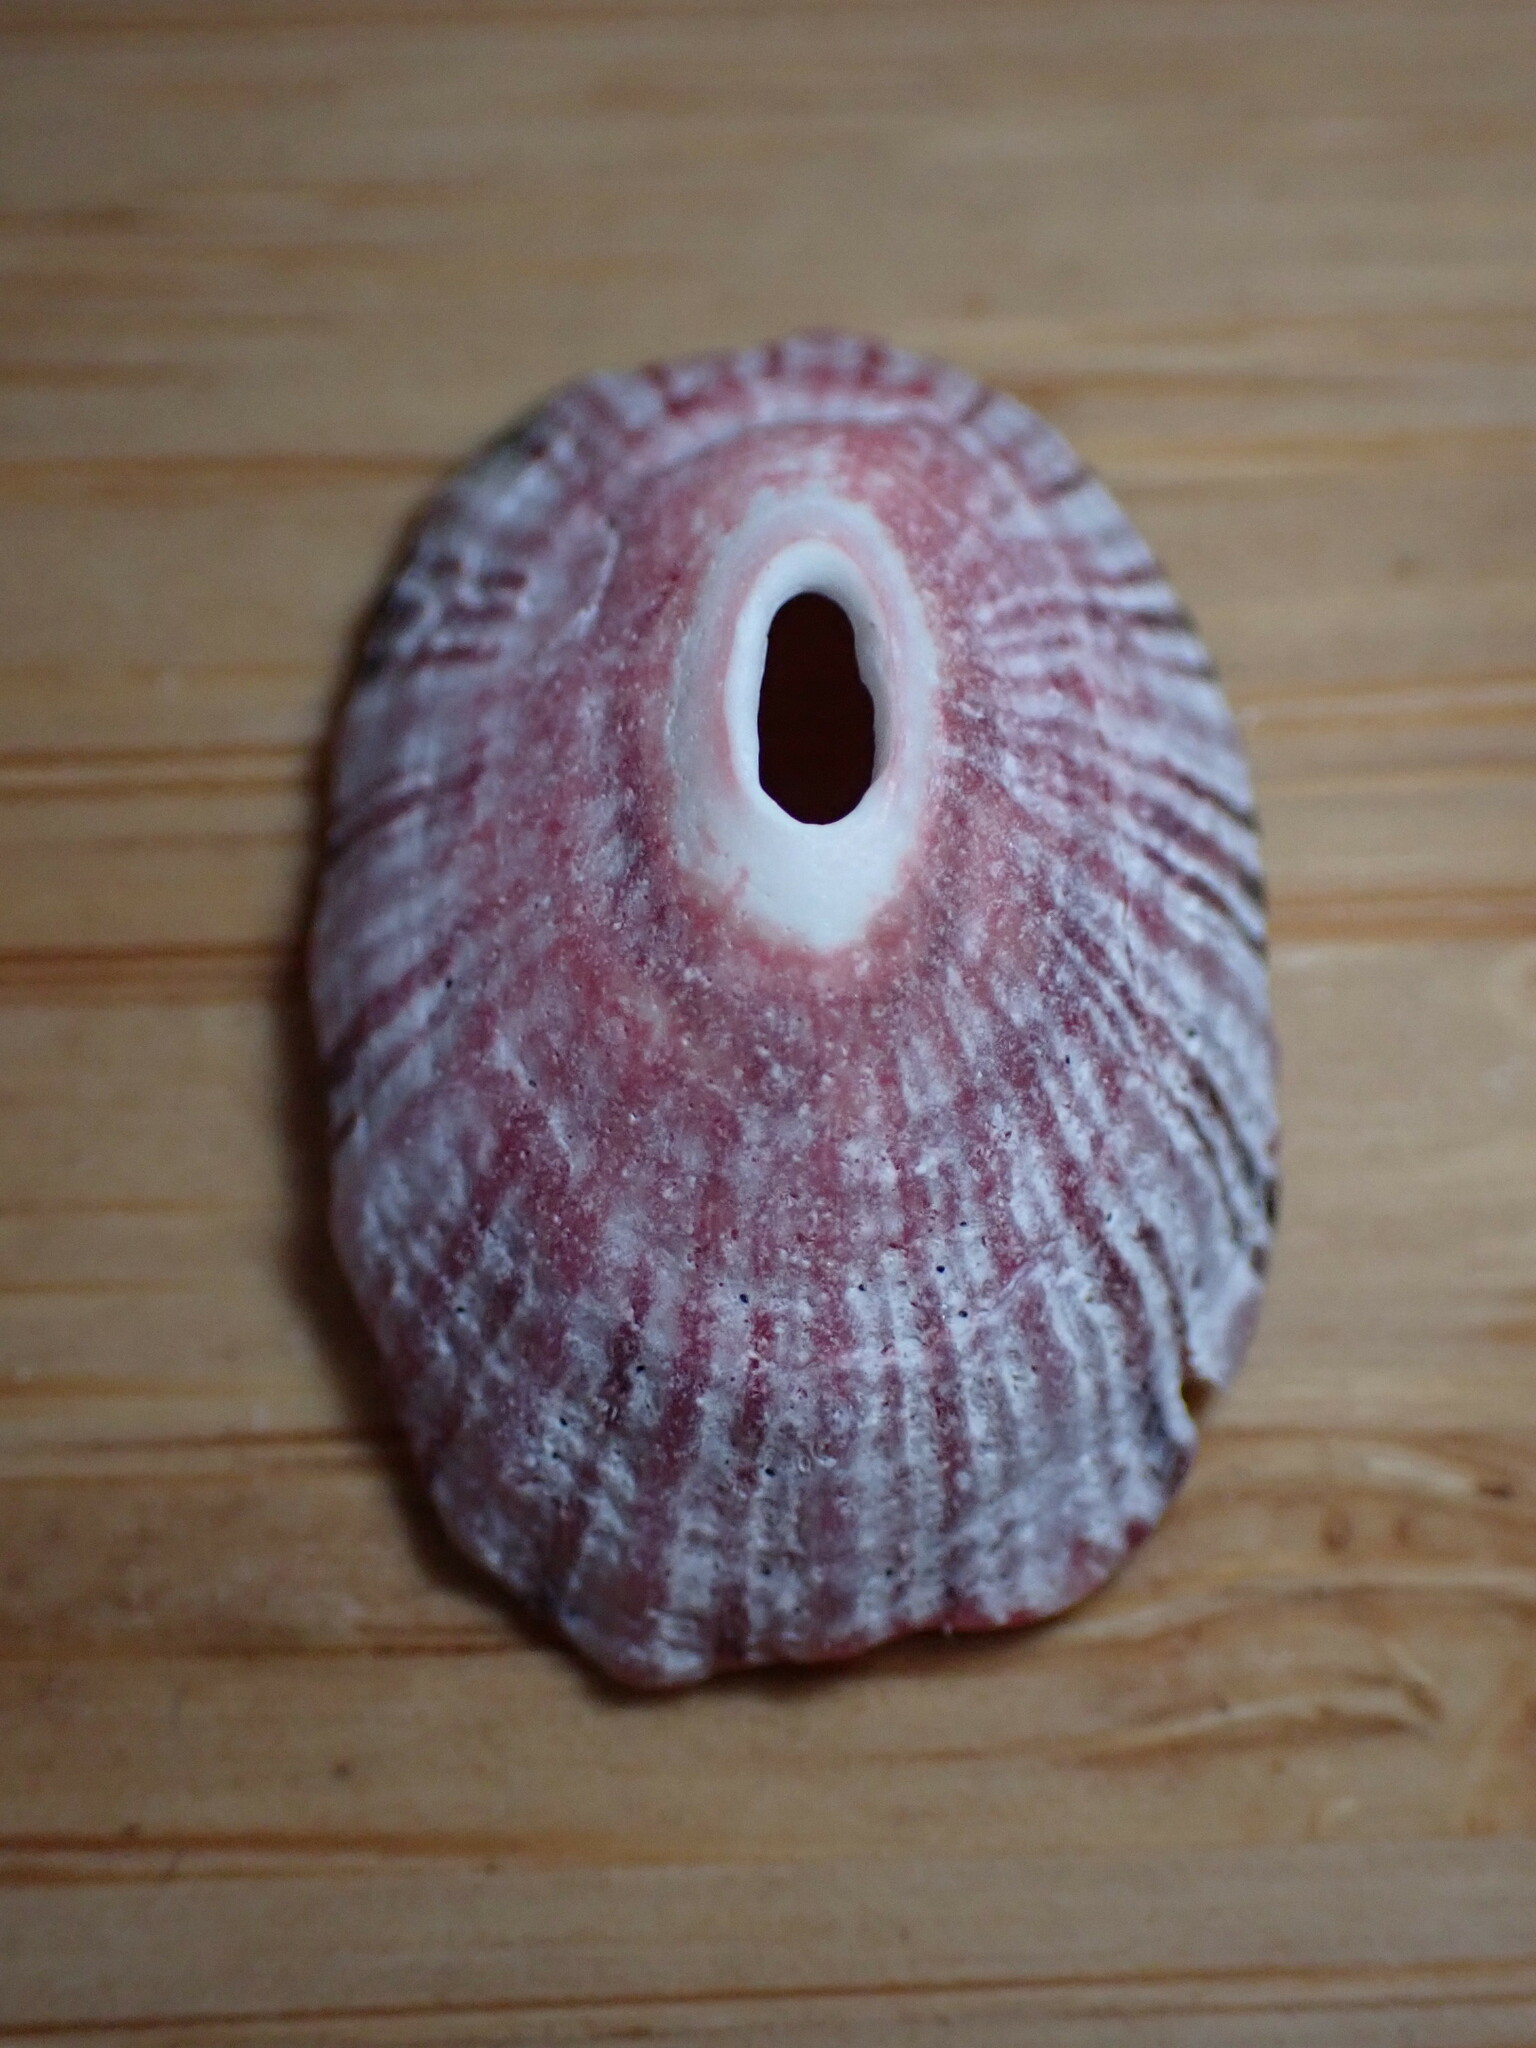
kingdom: Animalia
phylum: Mollusca
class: Gastropoda
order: Lepetellida
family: Fissurellidae
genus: Fissurella
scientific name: Fissurella volcano
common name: Volcano keyhole limpet
